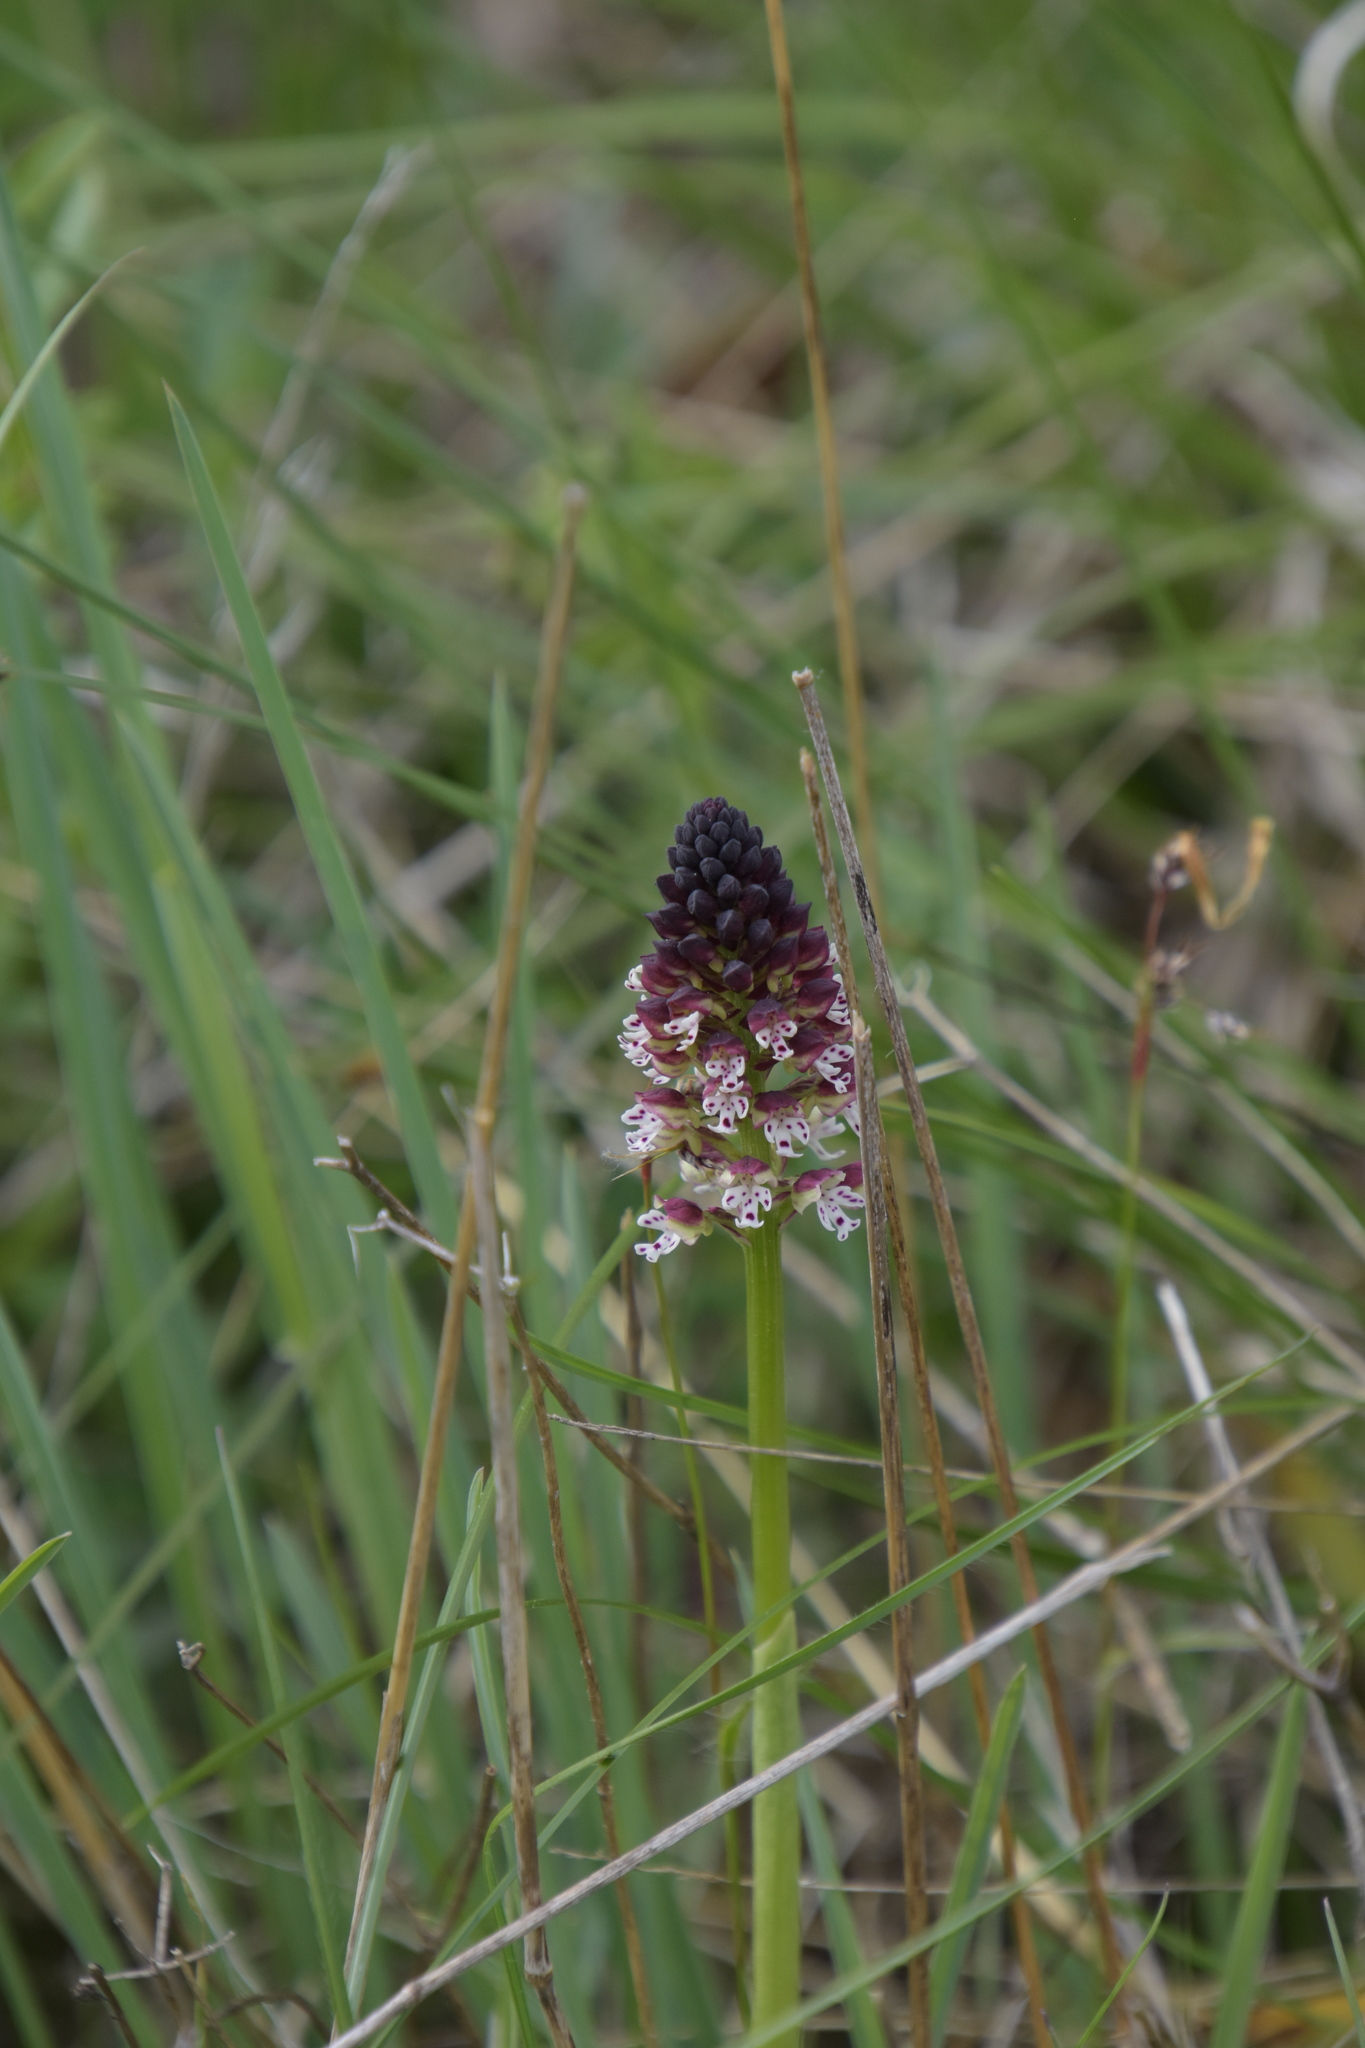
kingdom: Plantae
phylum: Tracheophyta
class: Liliopsida
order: Asparagales
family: Orchidaceae
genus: Neotinea
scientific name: Neotinea ustulata
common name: Burnt orchid
